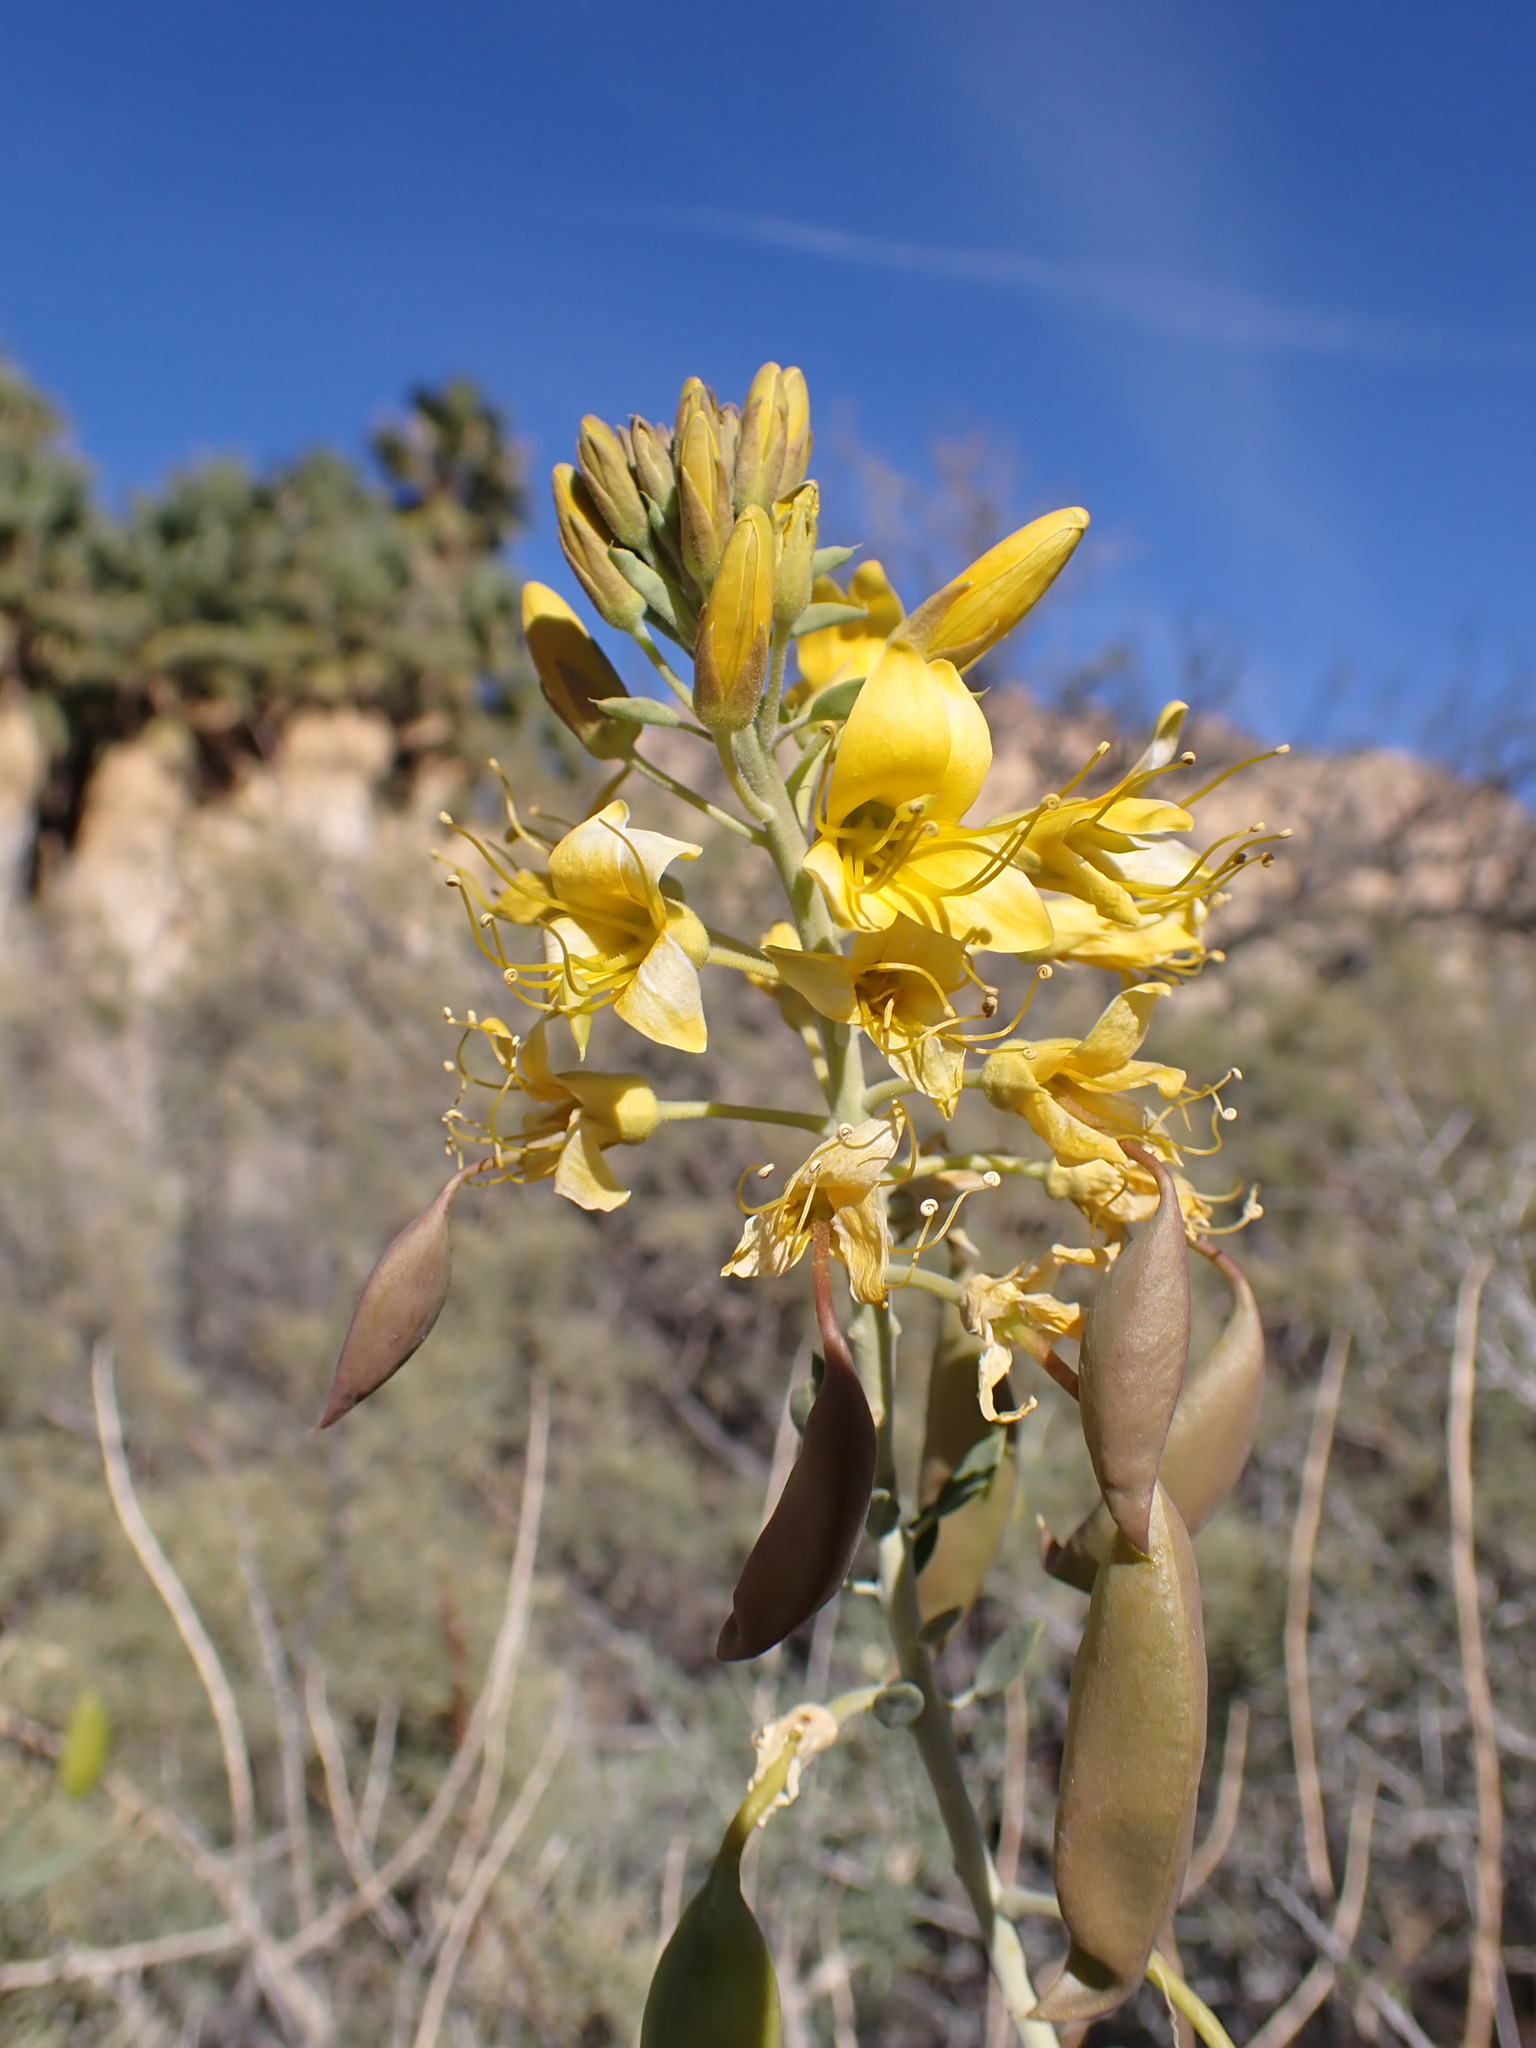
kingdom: Plantae
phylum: Tracheophyta
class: Magnoliopsida
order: Brassicales
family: Cleomaceae
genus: Cleomella
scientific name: Cleomella arborea
